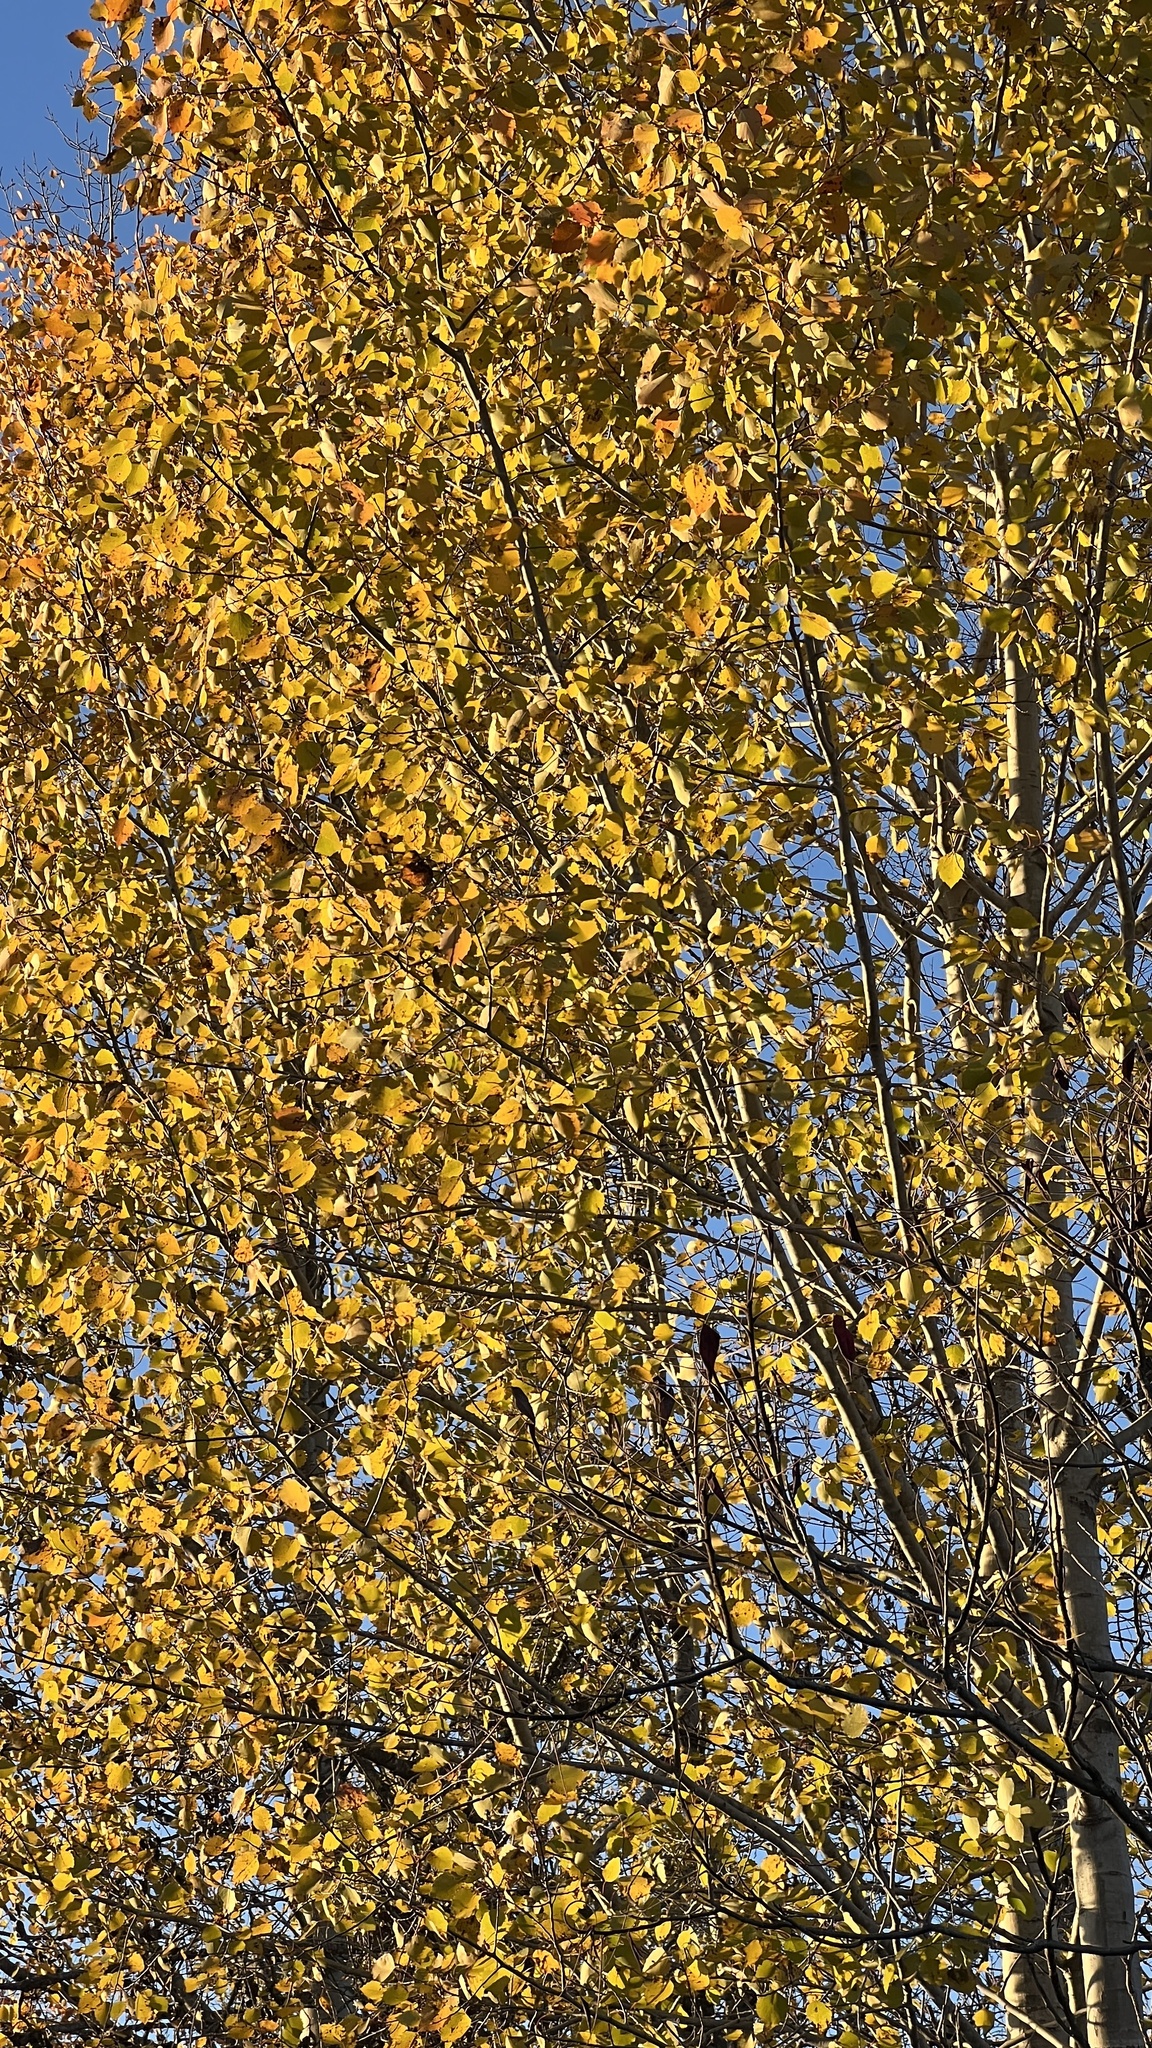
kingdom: Plantae
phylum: Tracheophyta
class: Magnoliopsida
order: Malpighiales
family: Salicaceae
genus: Populus
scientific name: Populus grandidentata
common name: Bigtooth aspen
